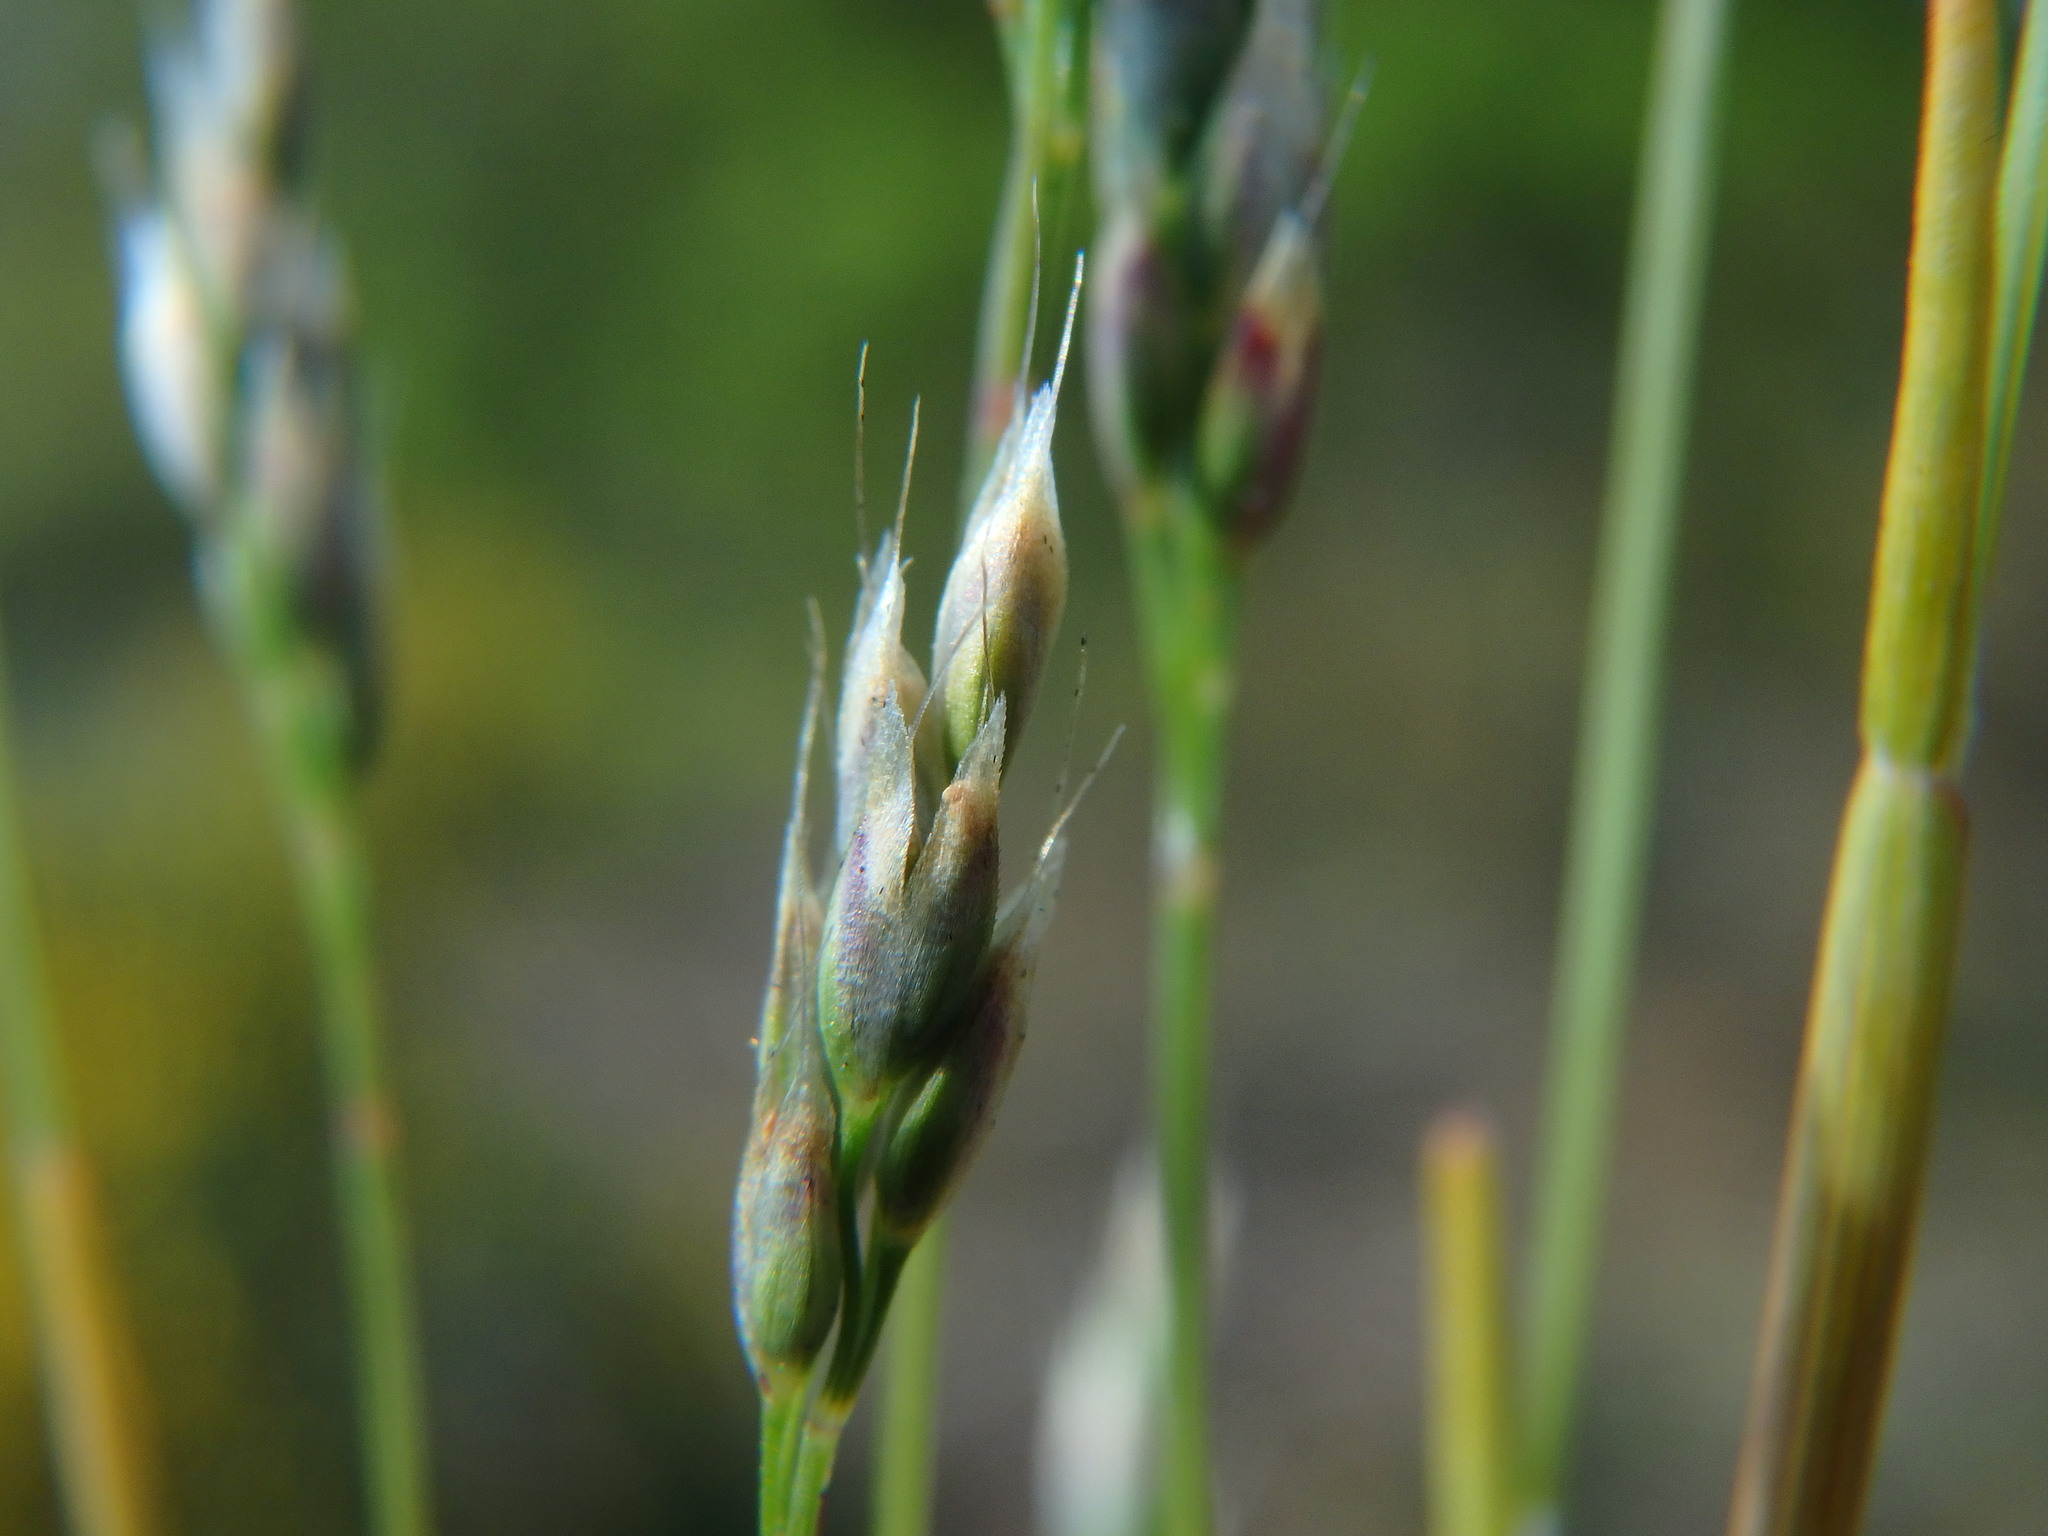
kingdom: Plantae
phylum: Tracheophyta
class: Liliopsida
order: Poales
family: Poaceae
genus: Aira
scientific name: Aira praecox
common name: Early hair-grass
